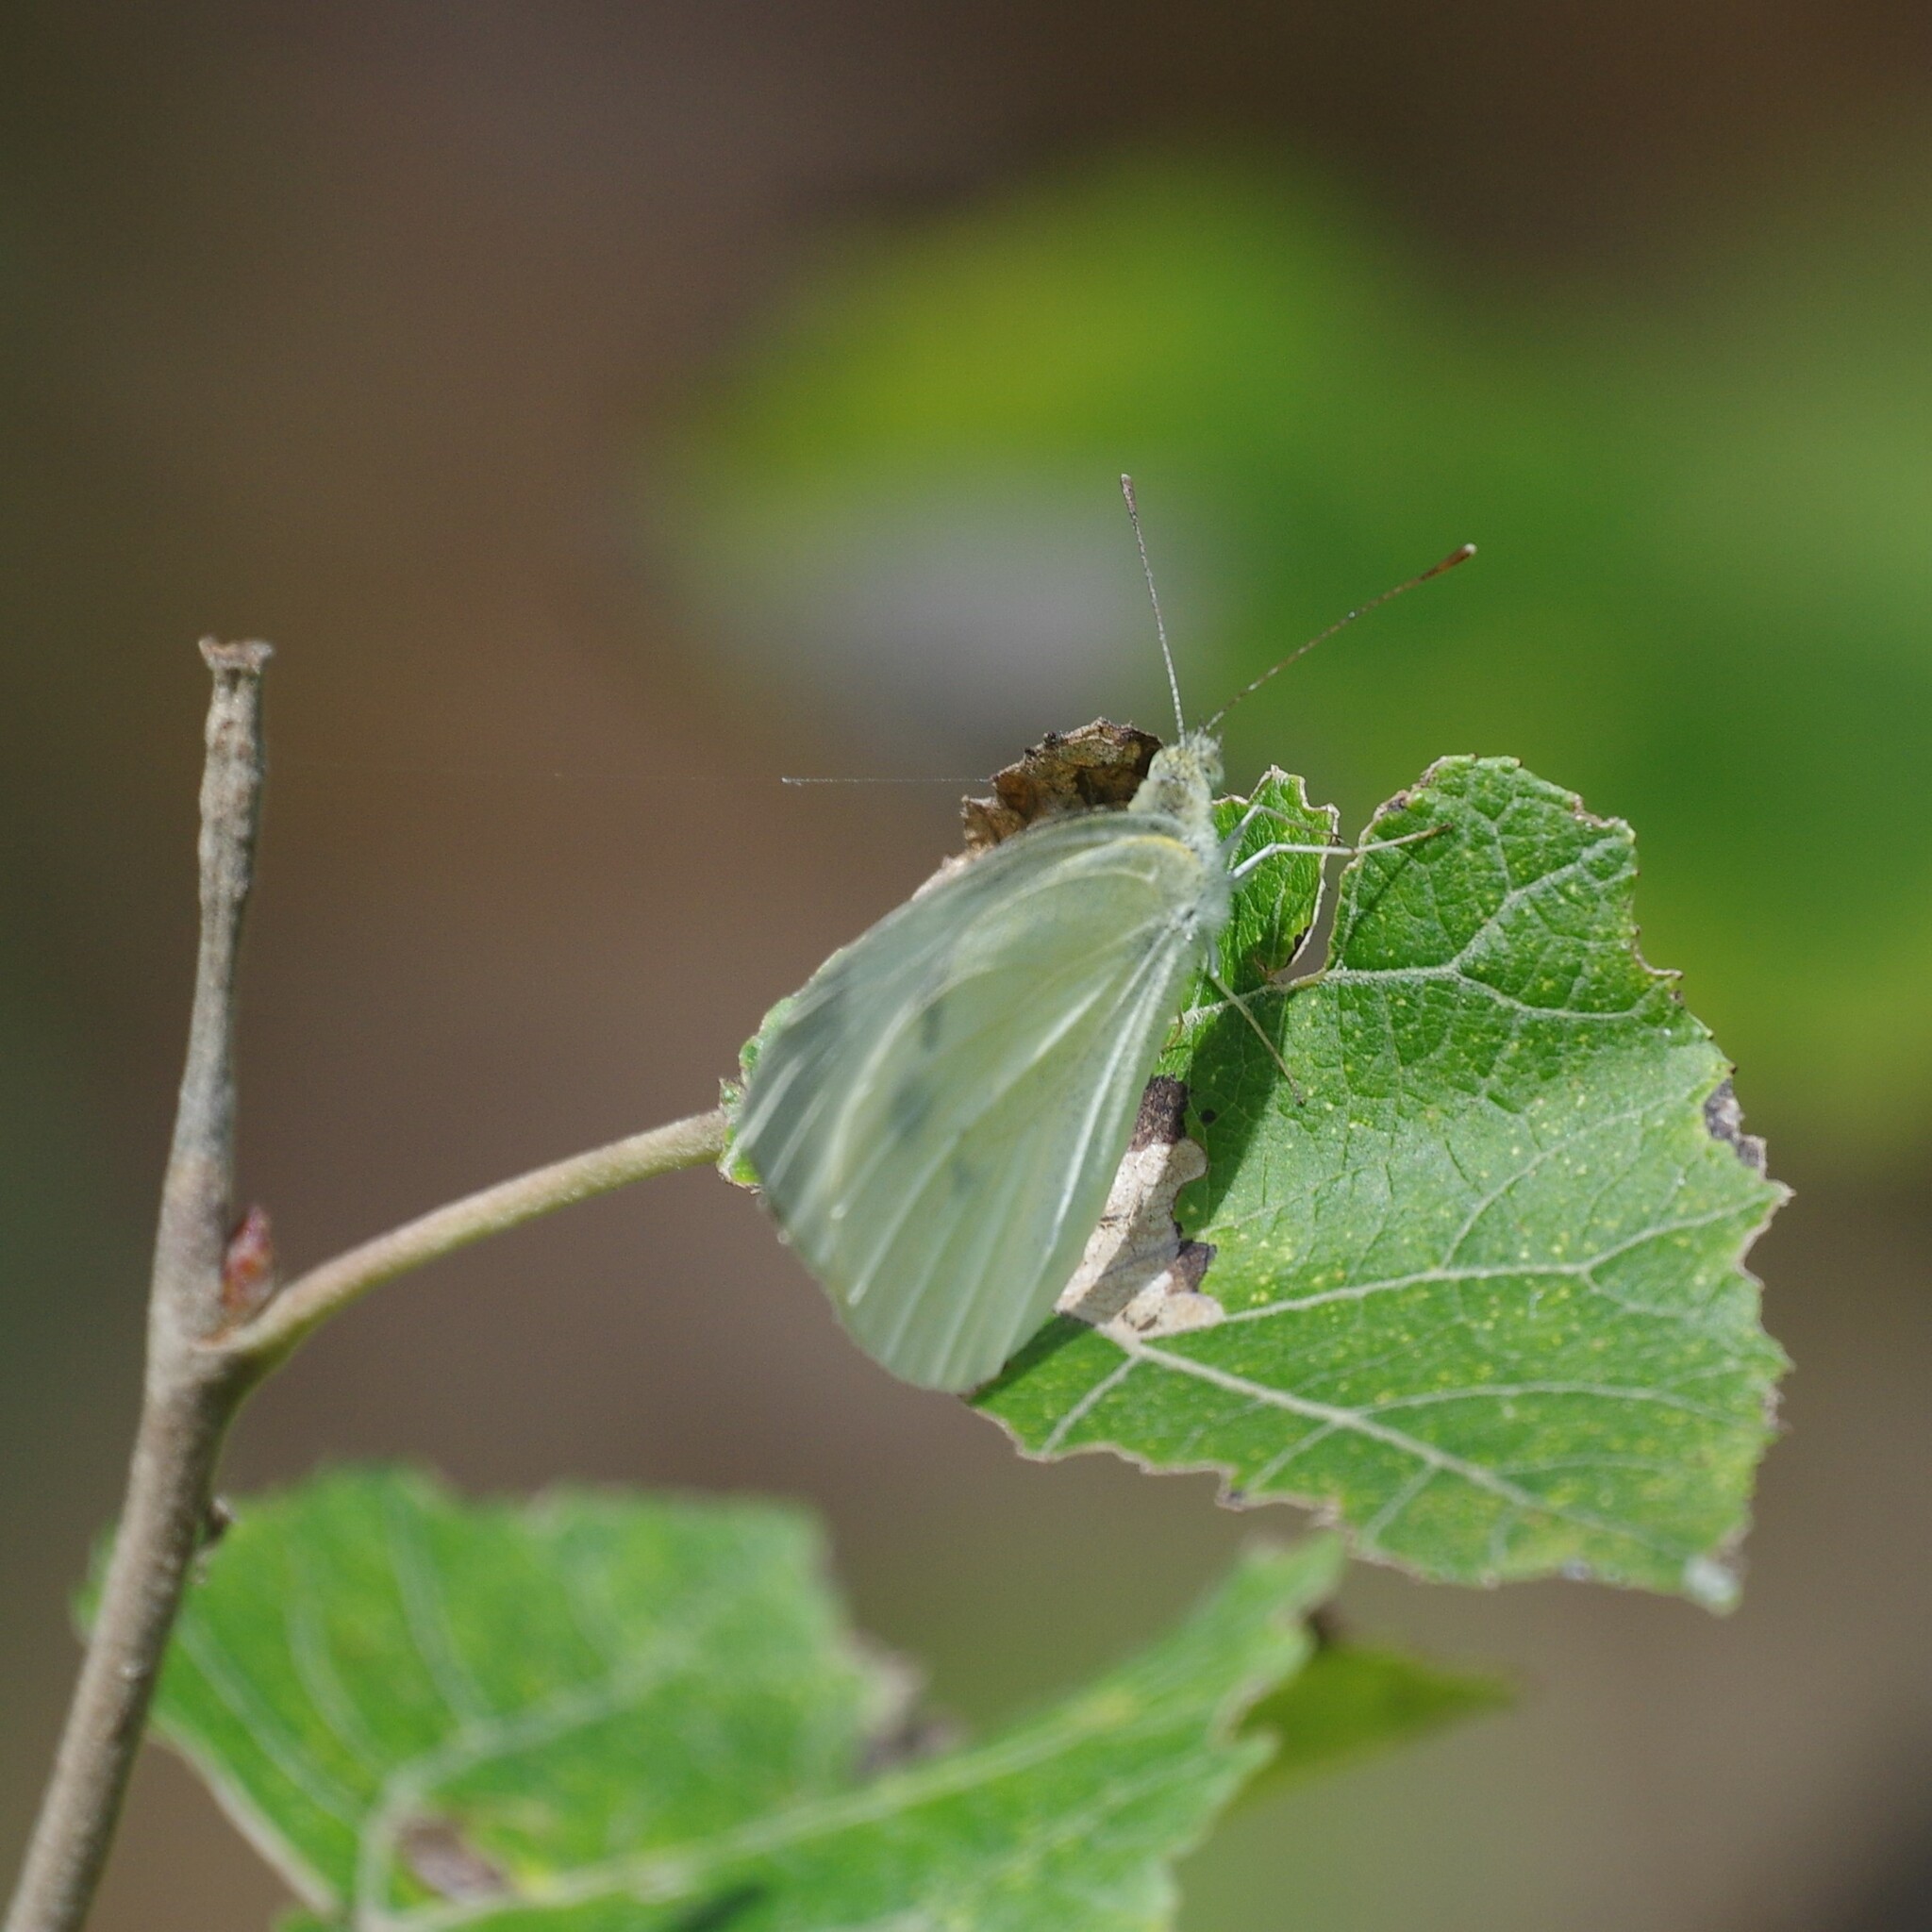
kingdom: Animalia
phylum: Arthropoda
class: Insecta
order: Lepidoptera
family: Pieridae
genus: Pieris
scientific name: Pieris rapae
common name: Small white
